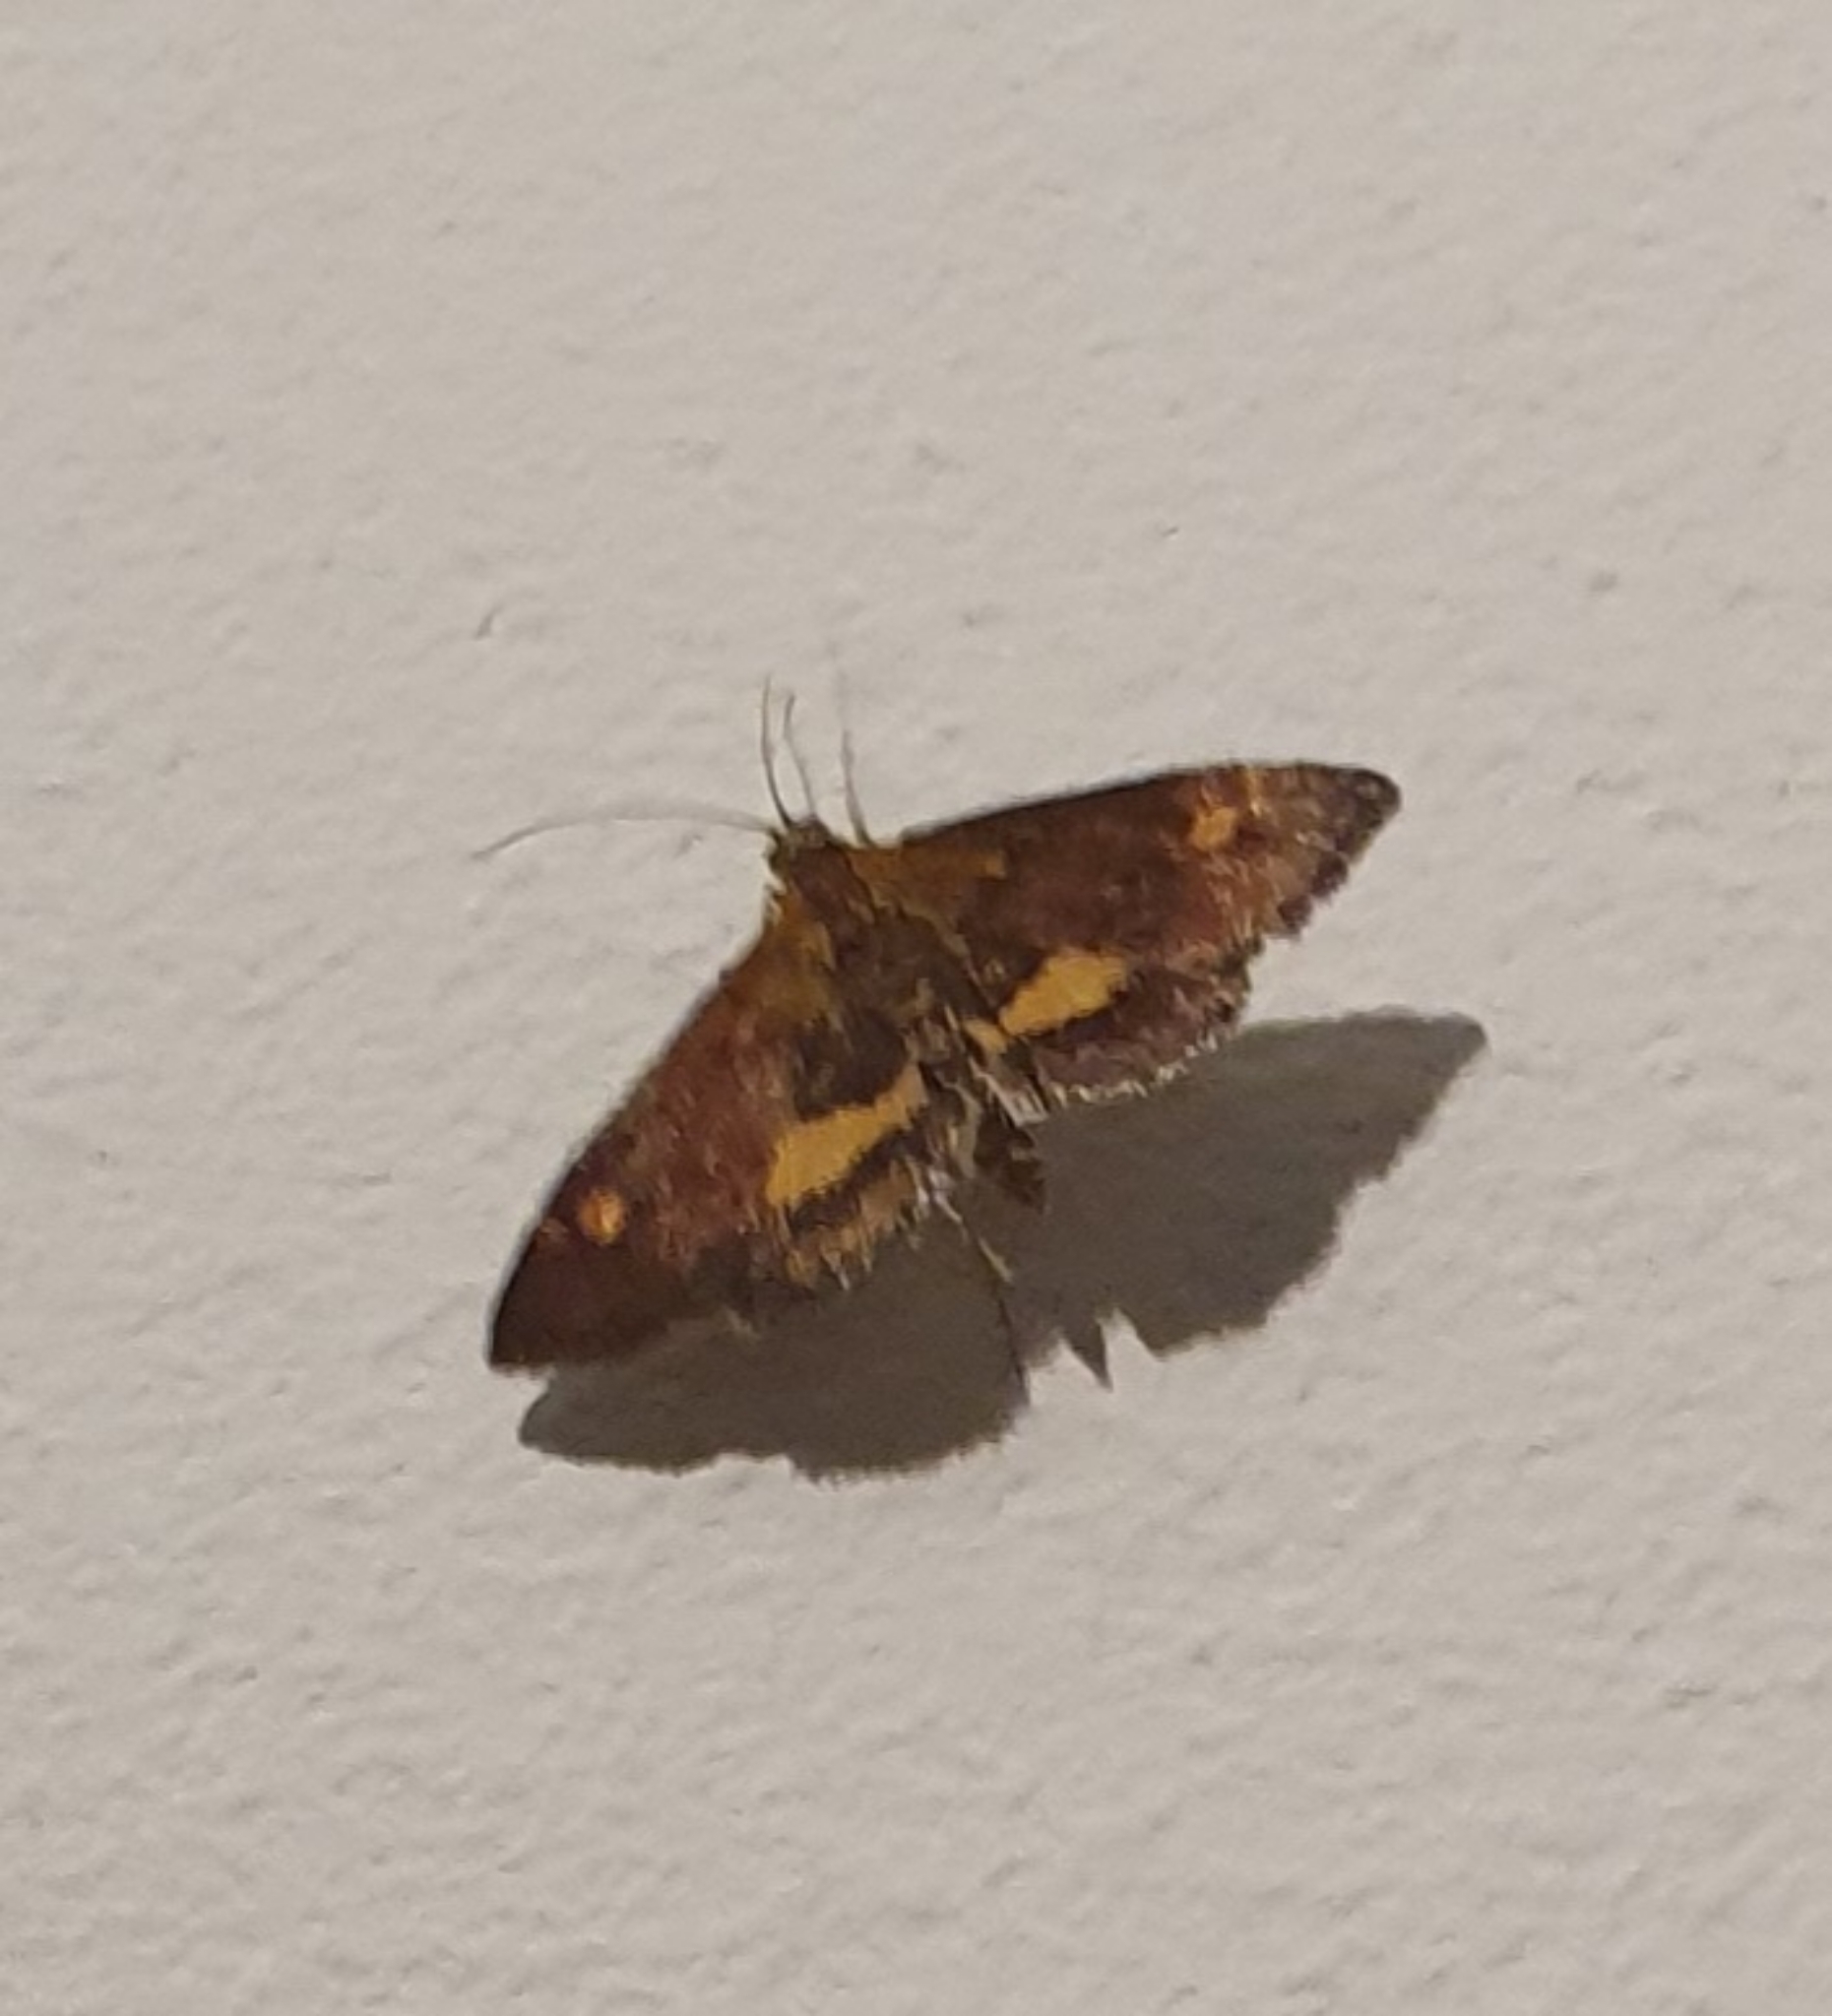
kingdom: Animalia
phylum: Arthropoda
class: Insecta
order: Lepidoptera
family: Crambidae
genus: Pyrausta
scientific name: Pyrausta aurata
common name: Small purple & gold
